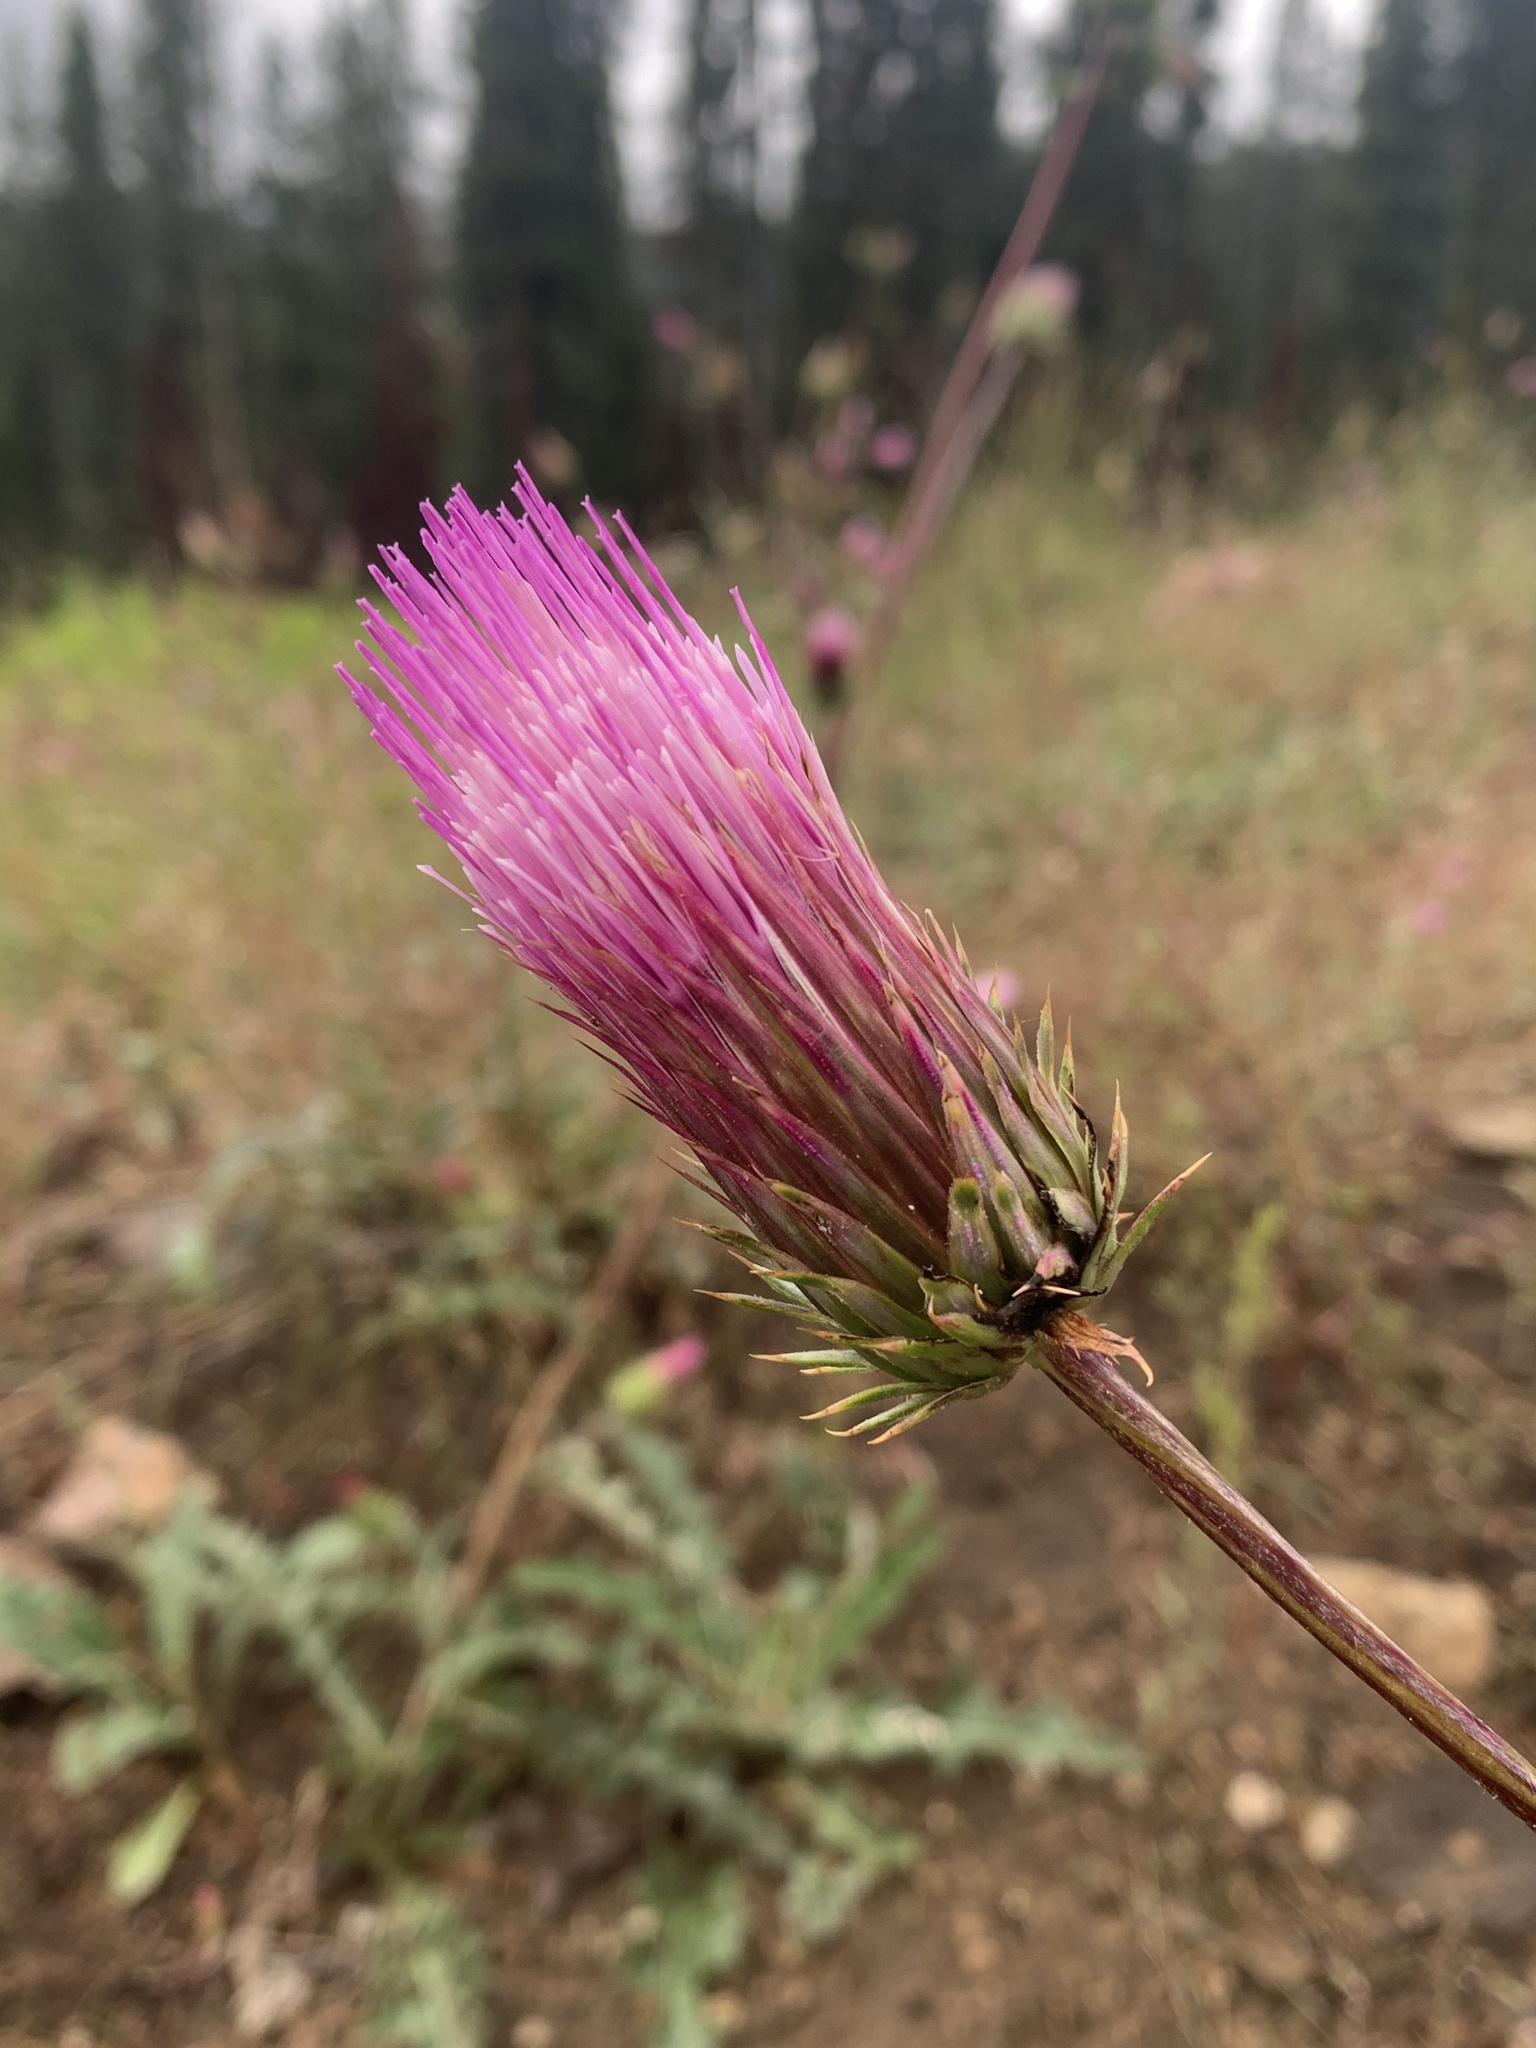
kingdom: Plantae
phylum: Tracheophyta
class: Magnoliopsida
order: Asterales
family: Asteraceae
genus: Cirsium
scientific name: Cirsium andersonii
